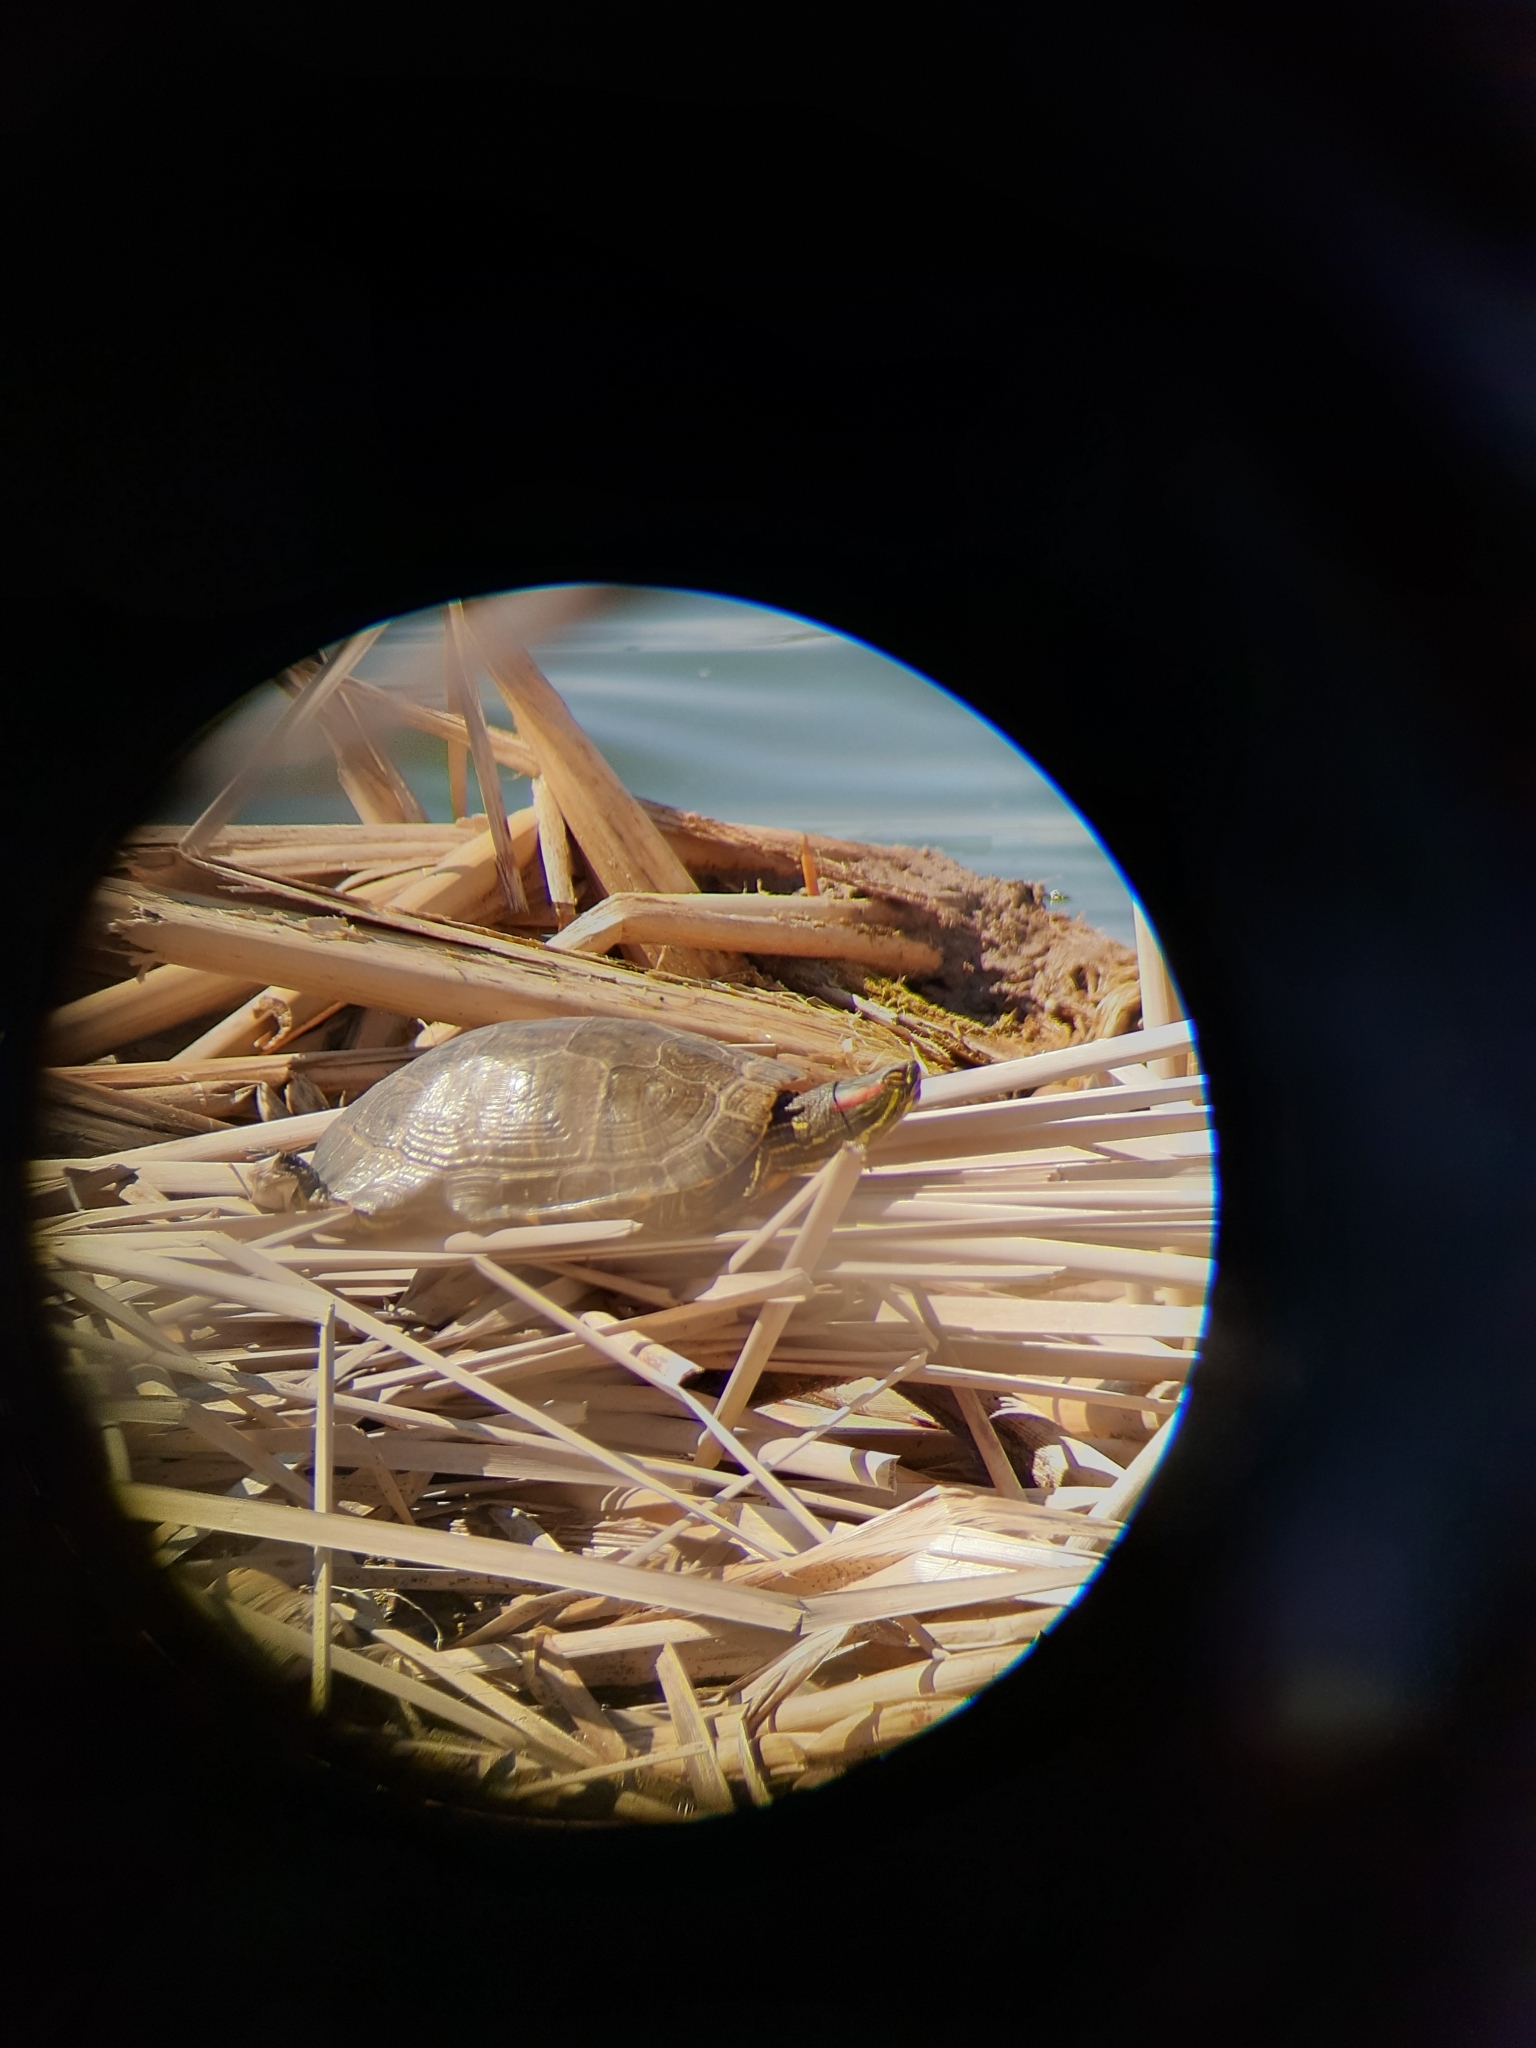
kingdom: Animalia
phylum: Chordata
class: Testudines
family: Emydidae
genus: Trachemys
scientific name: Trachemys scripta
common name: Slider
